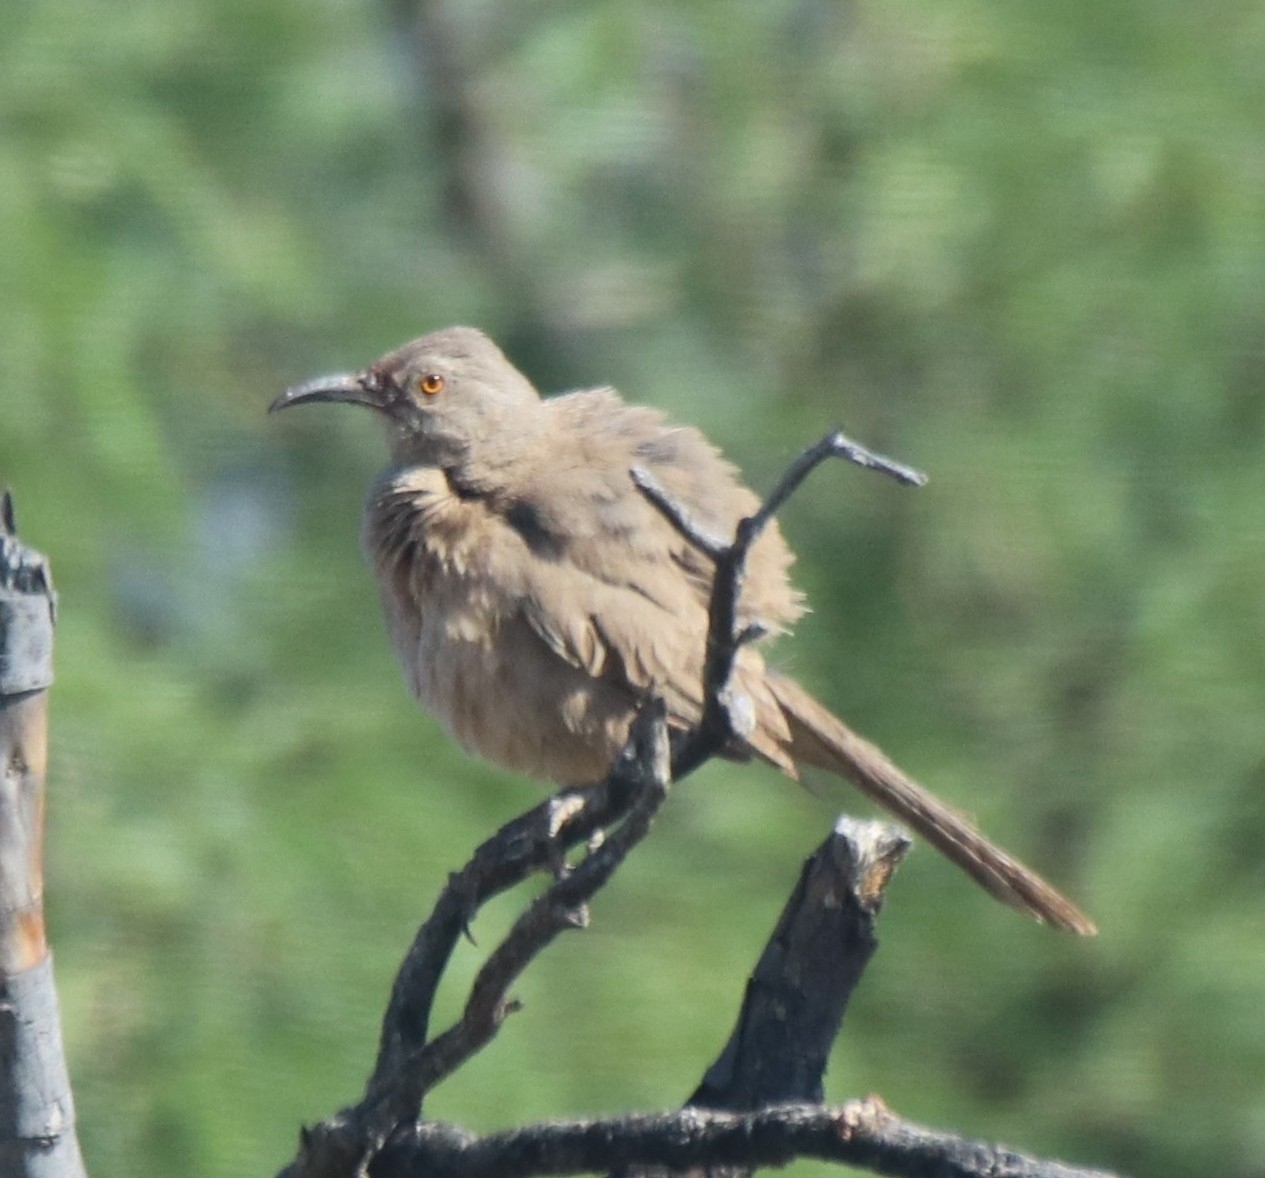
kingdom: Animalia
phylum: Chordata
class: Aves
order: Passeriformes
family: Mimidae
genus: Toxostoma
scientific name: Toxostoma curvirostre
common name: Curve-billed thrasher
